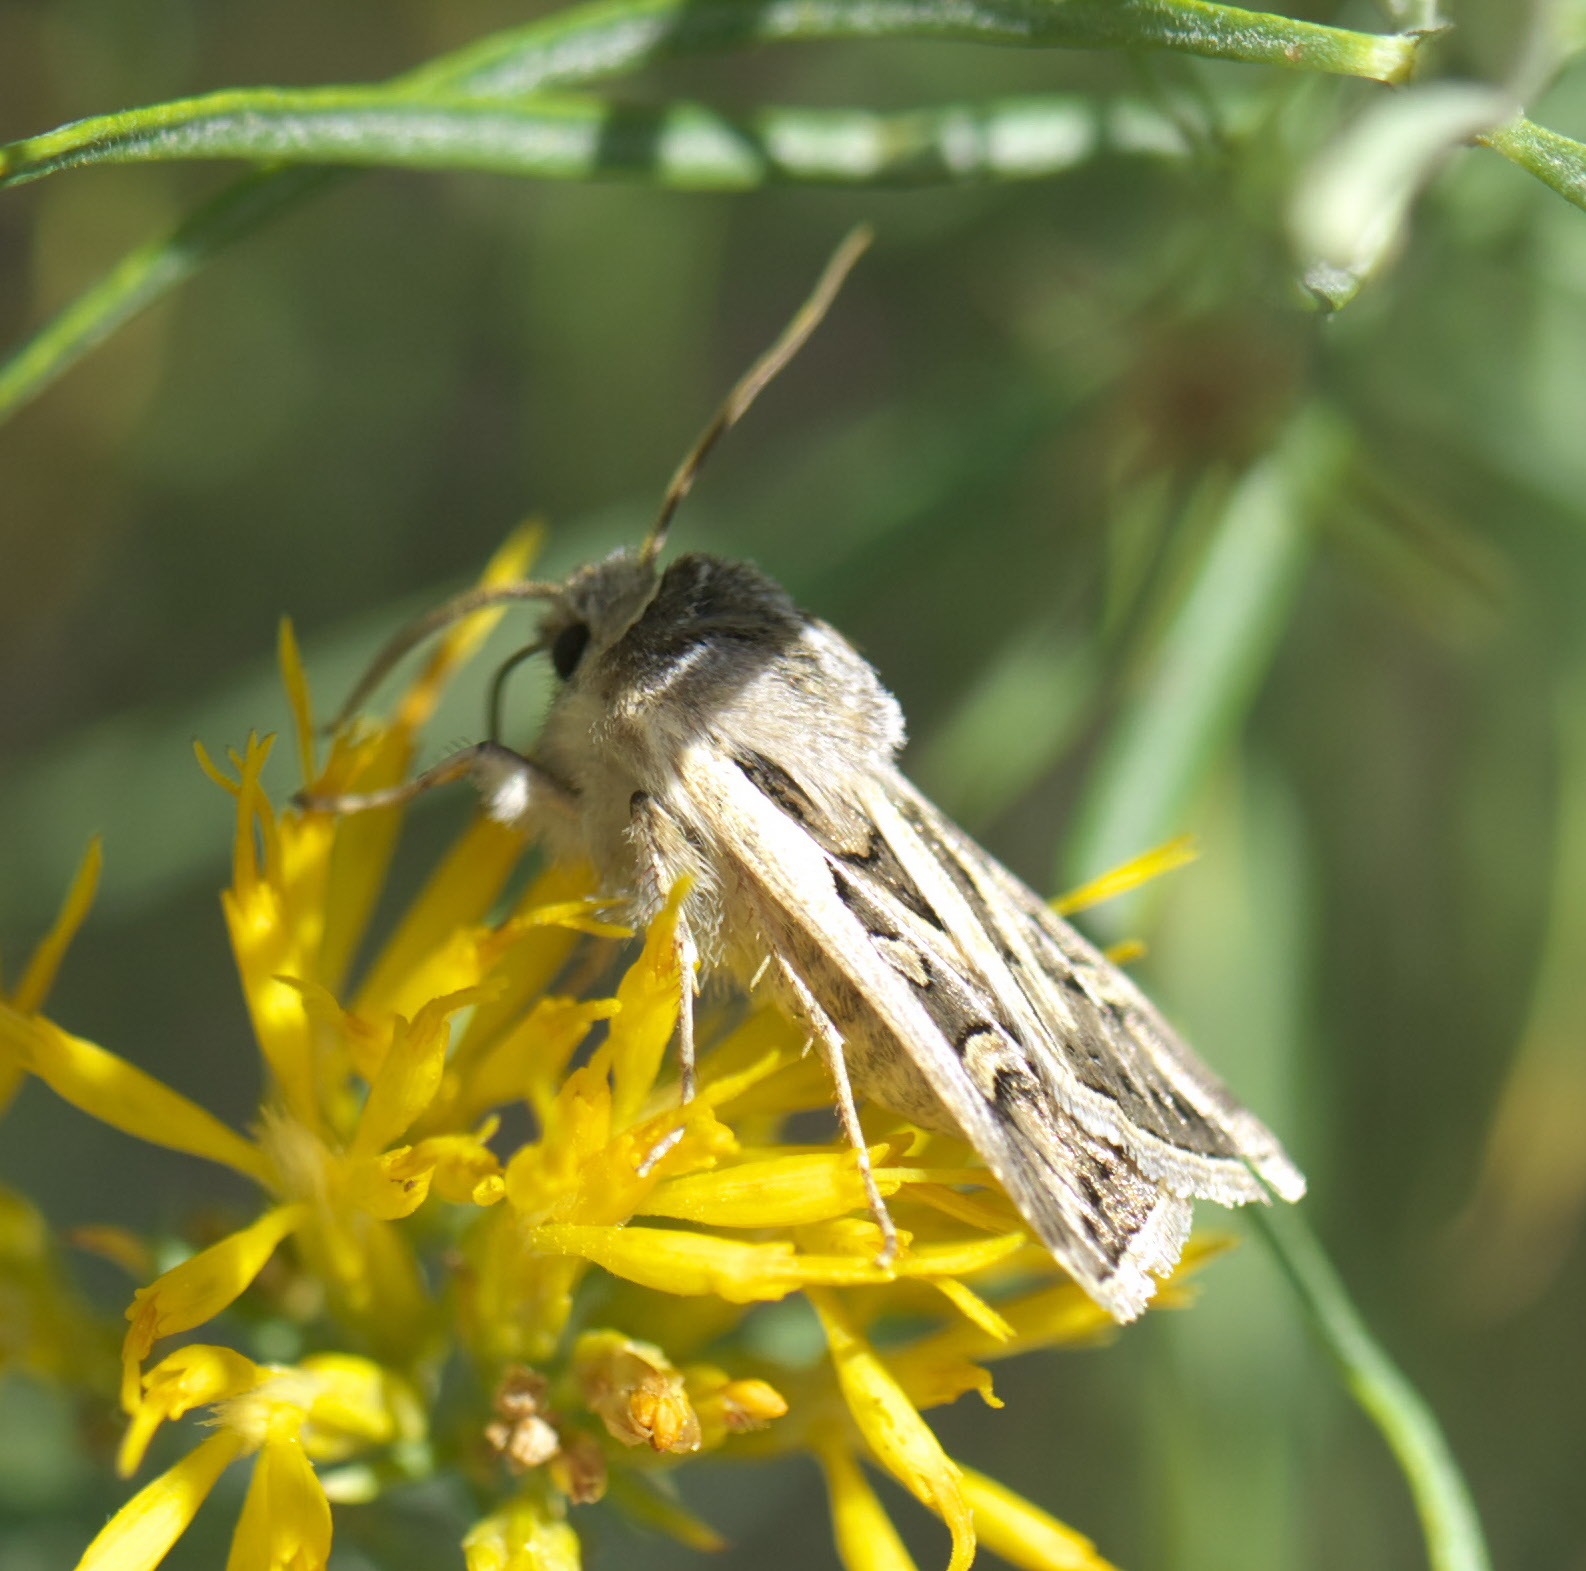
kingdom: Animalia
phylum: Arthropoda
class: Insecta
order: Lepidoptera
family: Noctuidae
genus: Euxoa
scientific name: Euxoa auxiliaris
